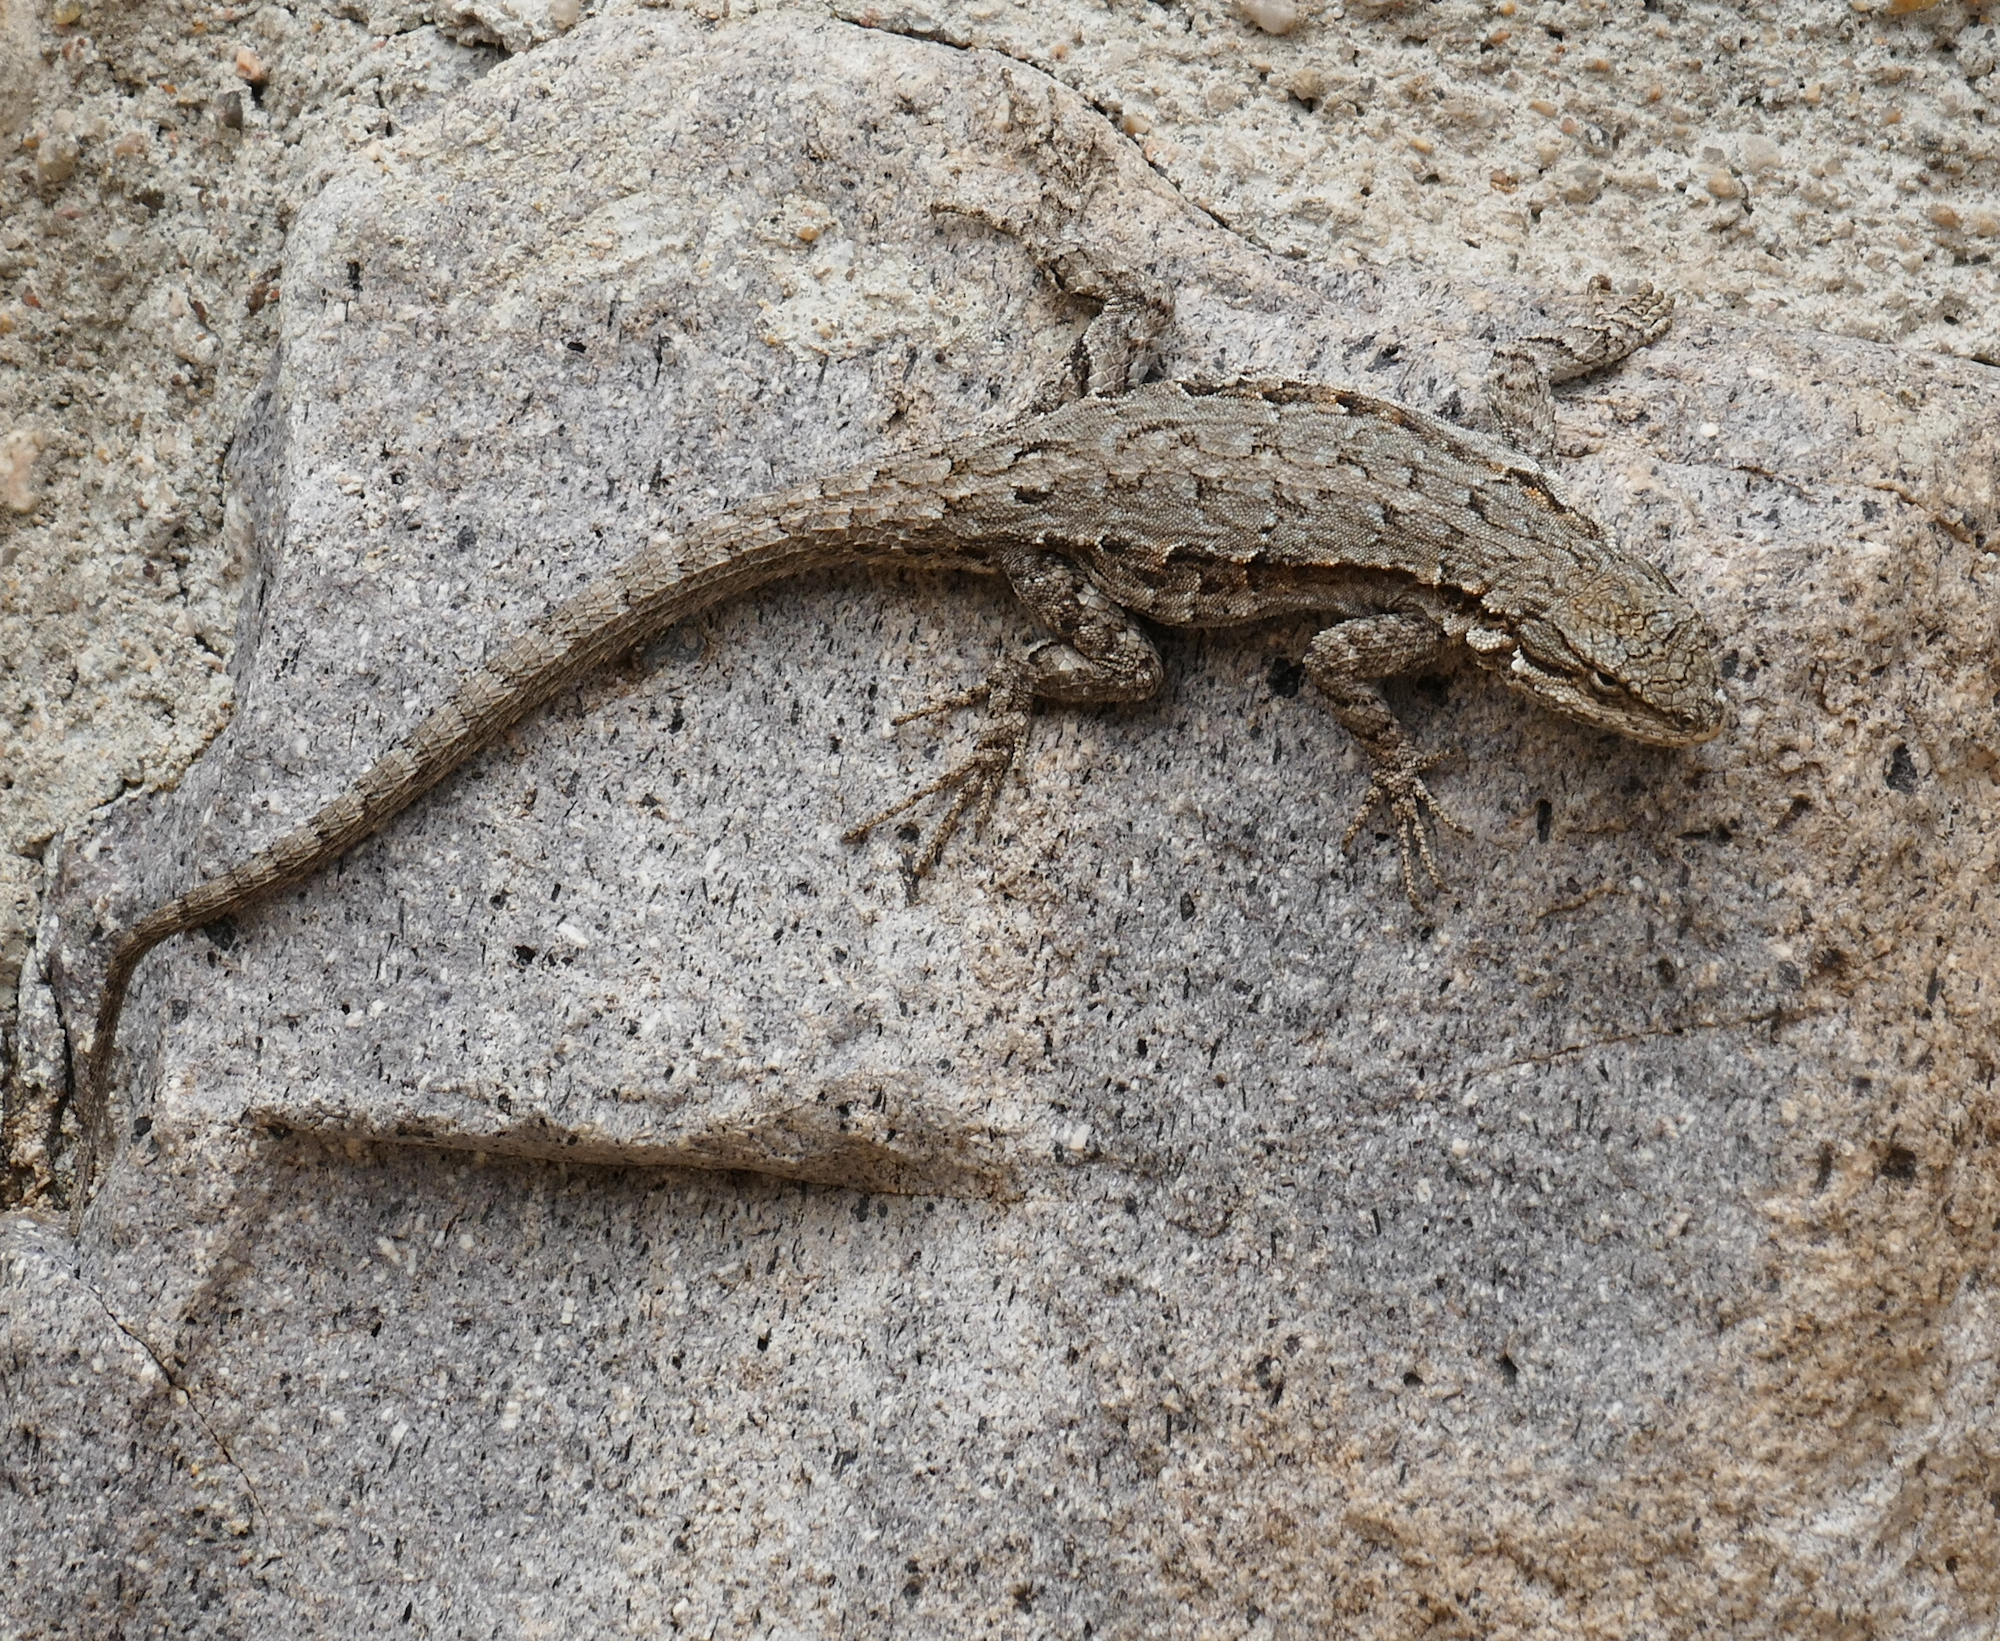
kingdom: Animalia
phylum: Chordata
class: Squamata
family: Phrynosomatidae
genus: Urosaurus
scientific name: Urosaurus ornatus
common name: Ornate tree lizard
